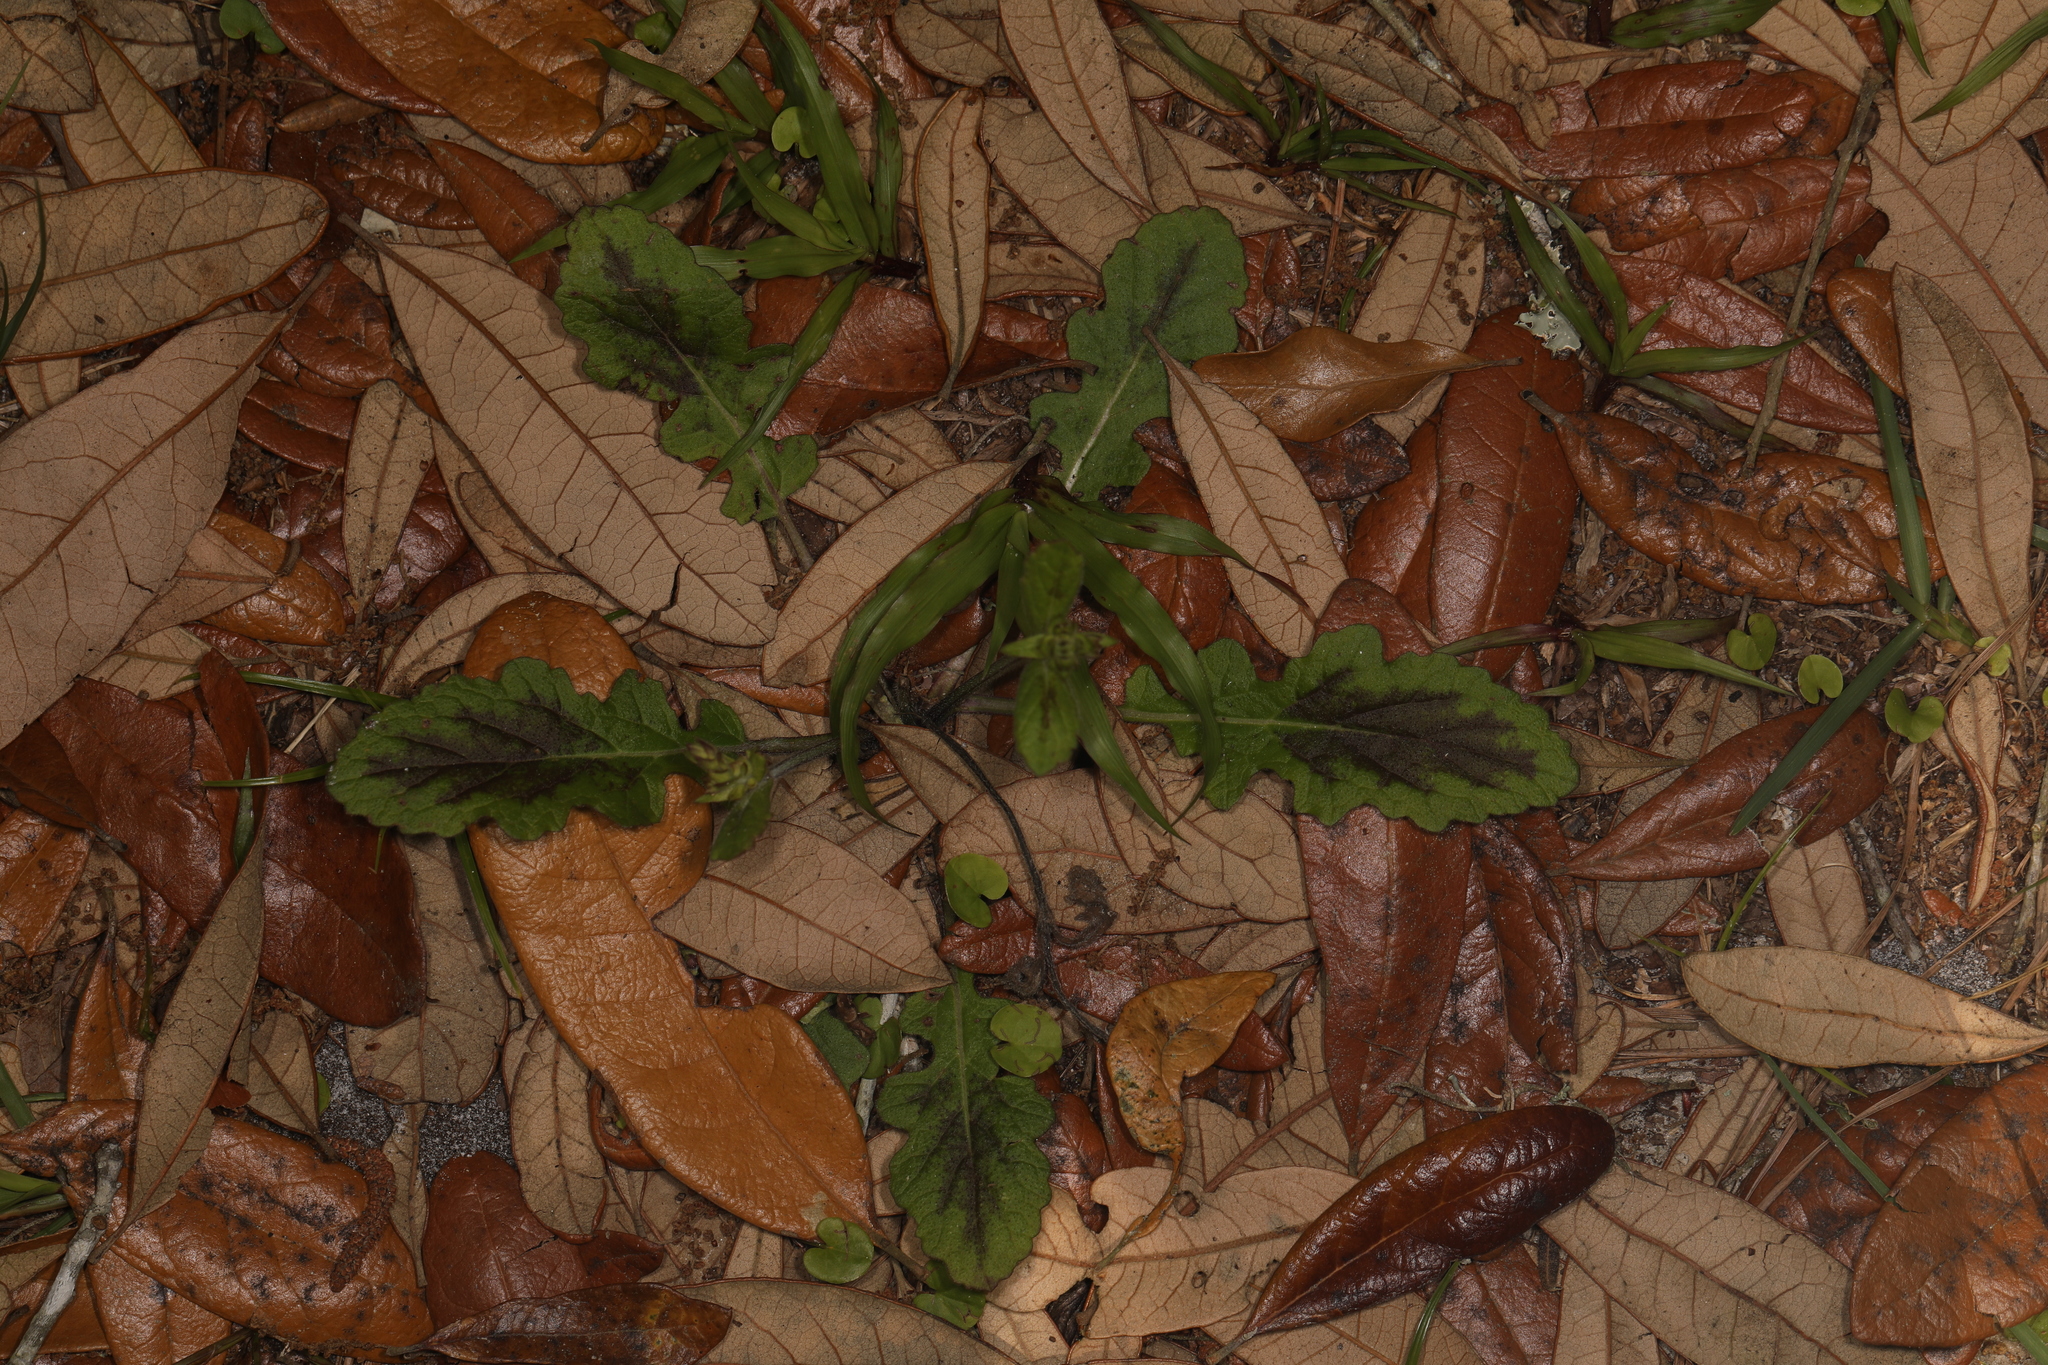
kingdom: Plantae
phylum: Tracheophyta
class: Magnoliopsida
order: Lamiales
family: Lamiaceae
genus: Salvia
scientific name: Salvia lyrata
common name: Cancerweed
